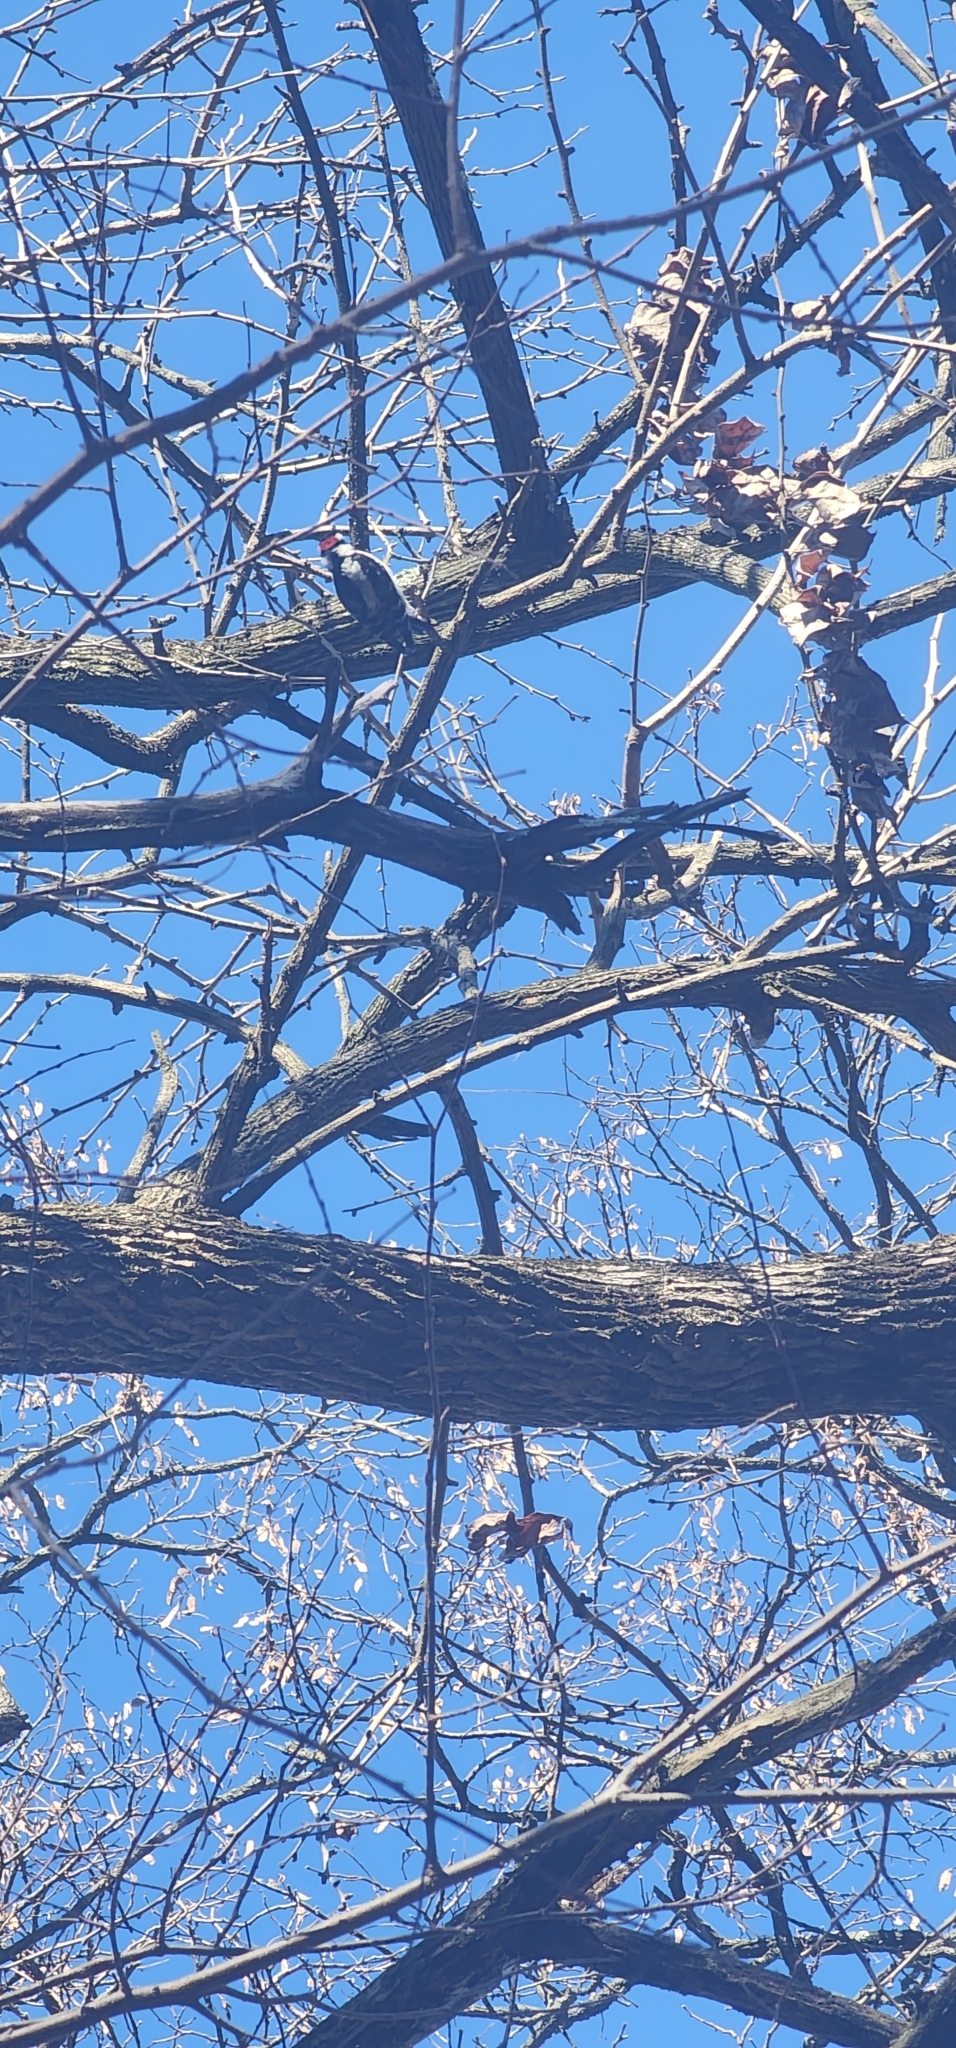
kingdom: Animalia
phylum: Chordata
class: Aves
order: Piciformes
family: Picidae
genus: Dryobates
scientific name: Dryobates pubescens
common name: Downy woodpecker
